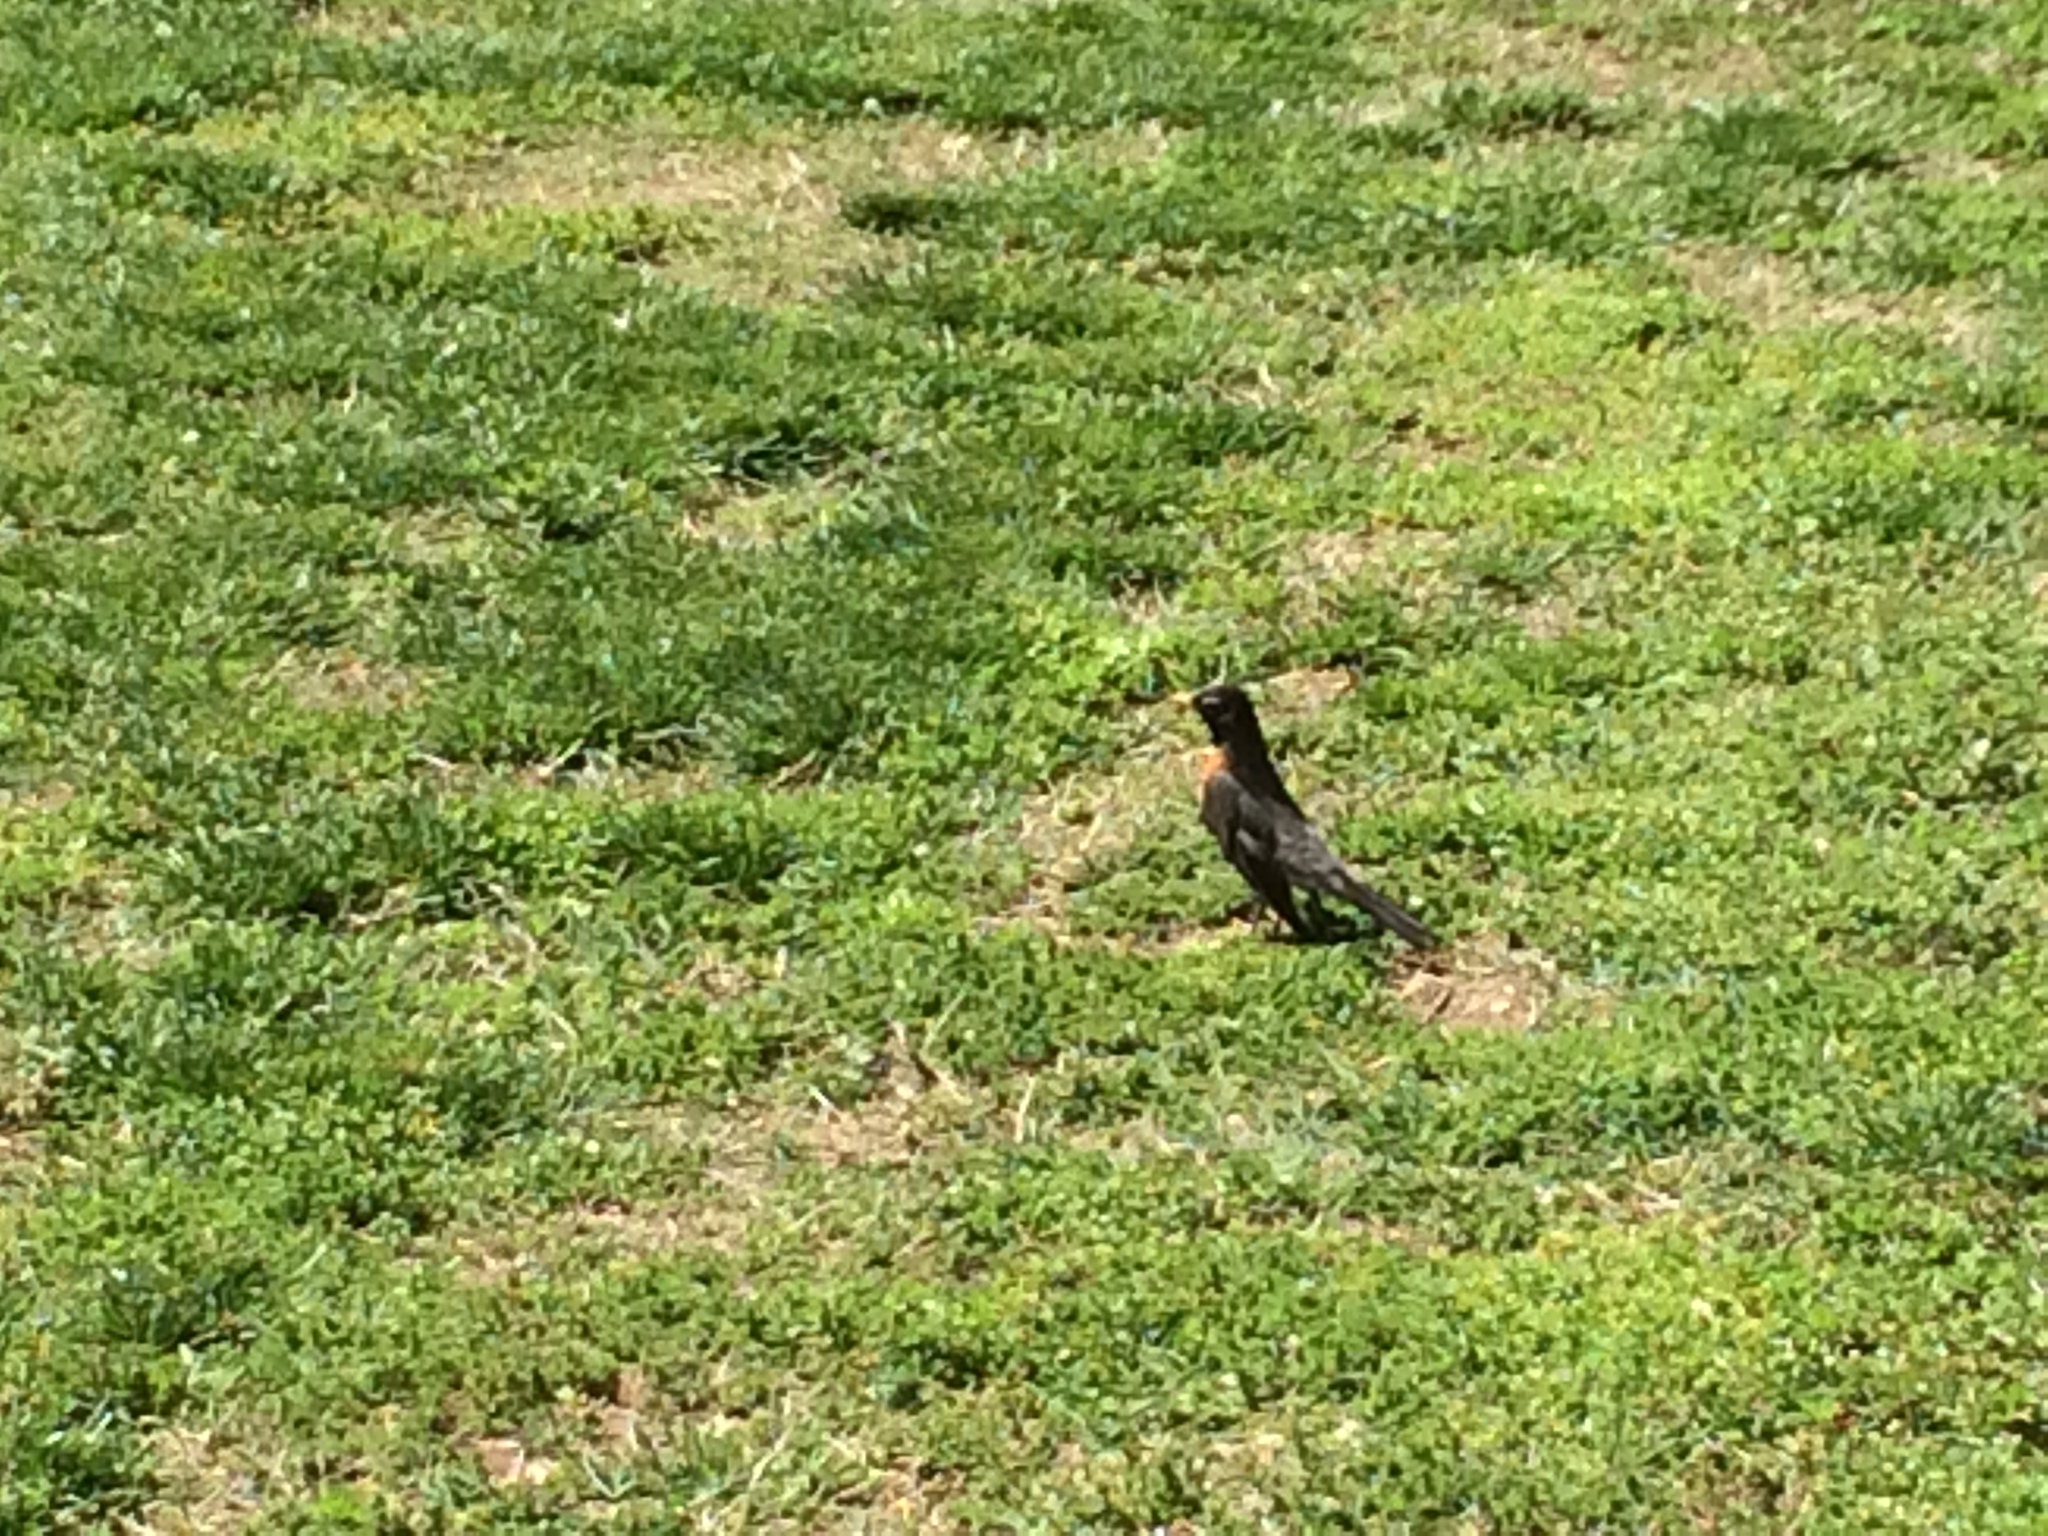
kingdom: Animalia
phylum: Chordata
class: Aves
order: Passeriformes
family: Turdidae
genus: Turdus
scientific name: Turdus migratorius
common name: American robin
